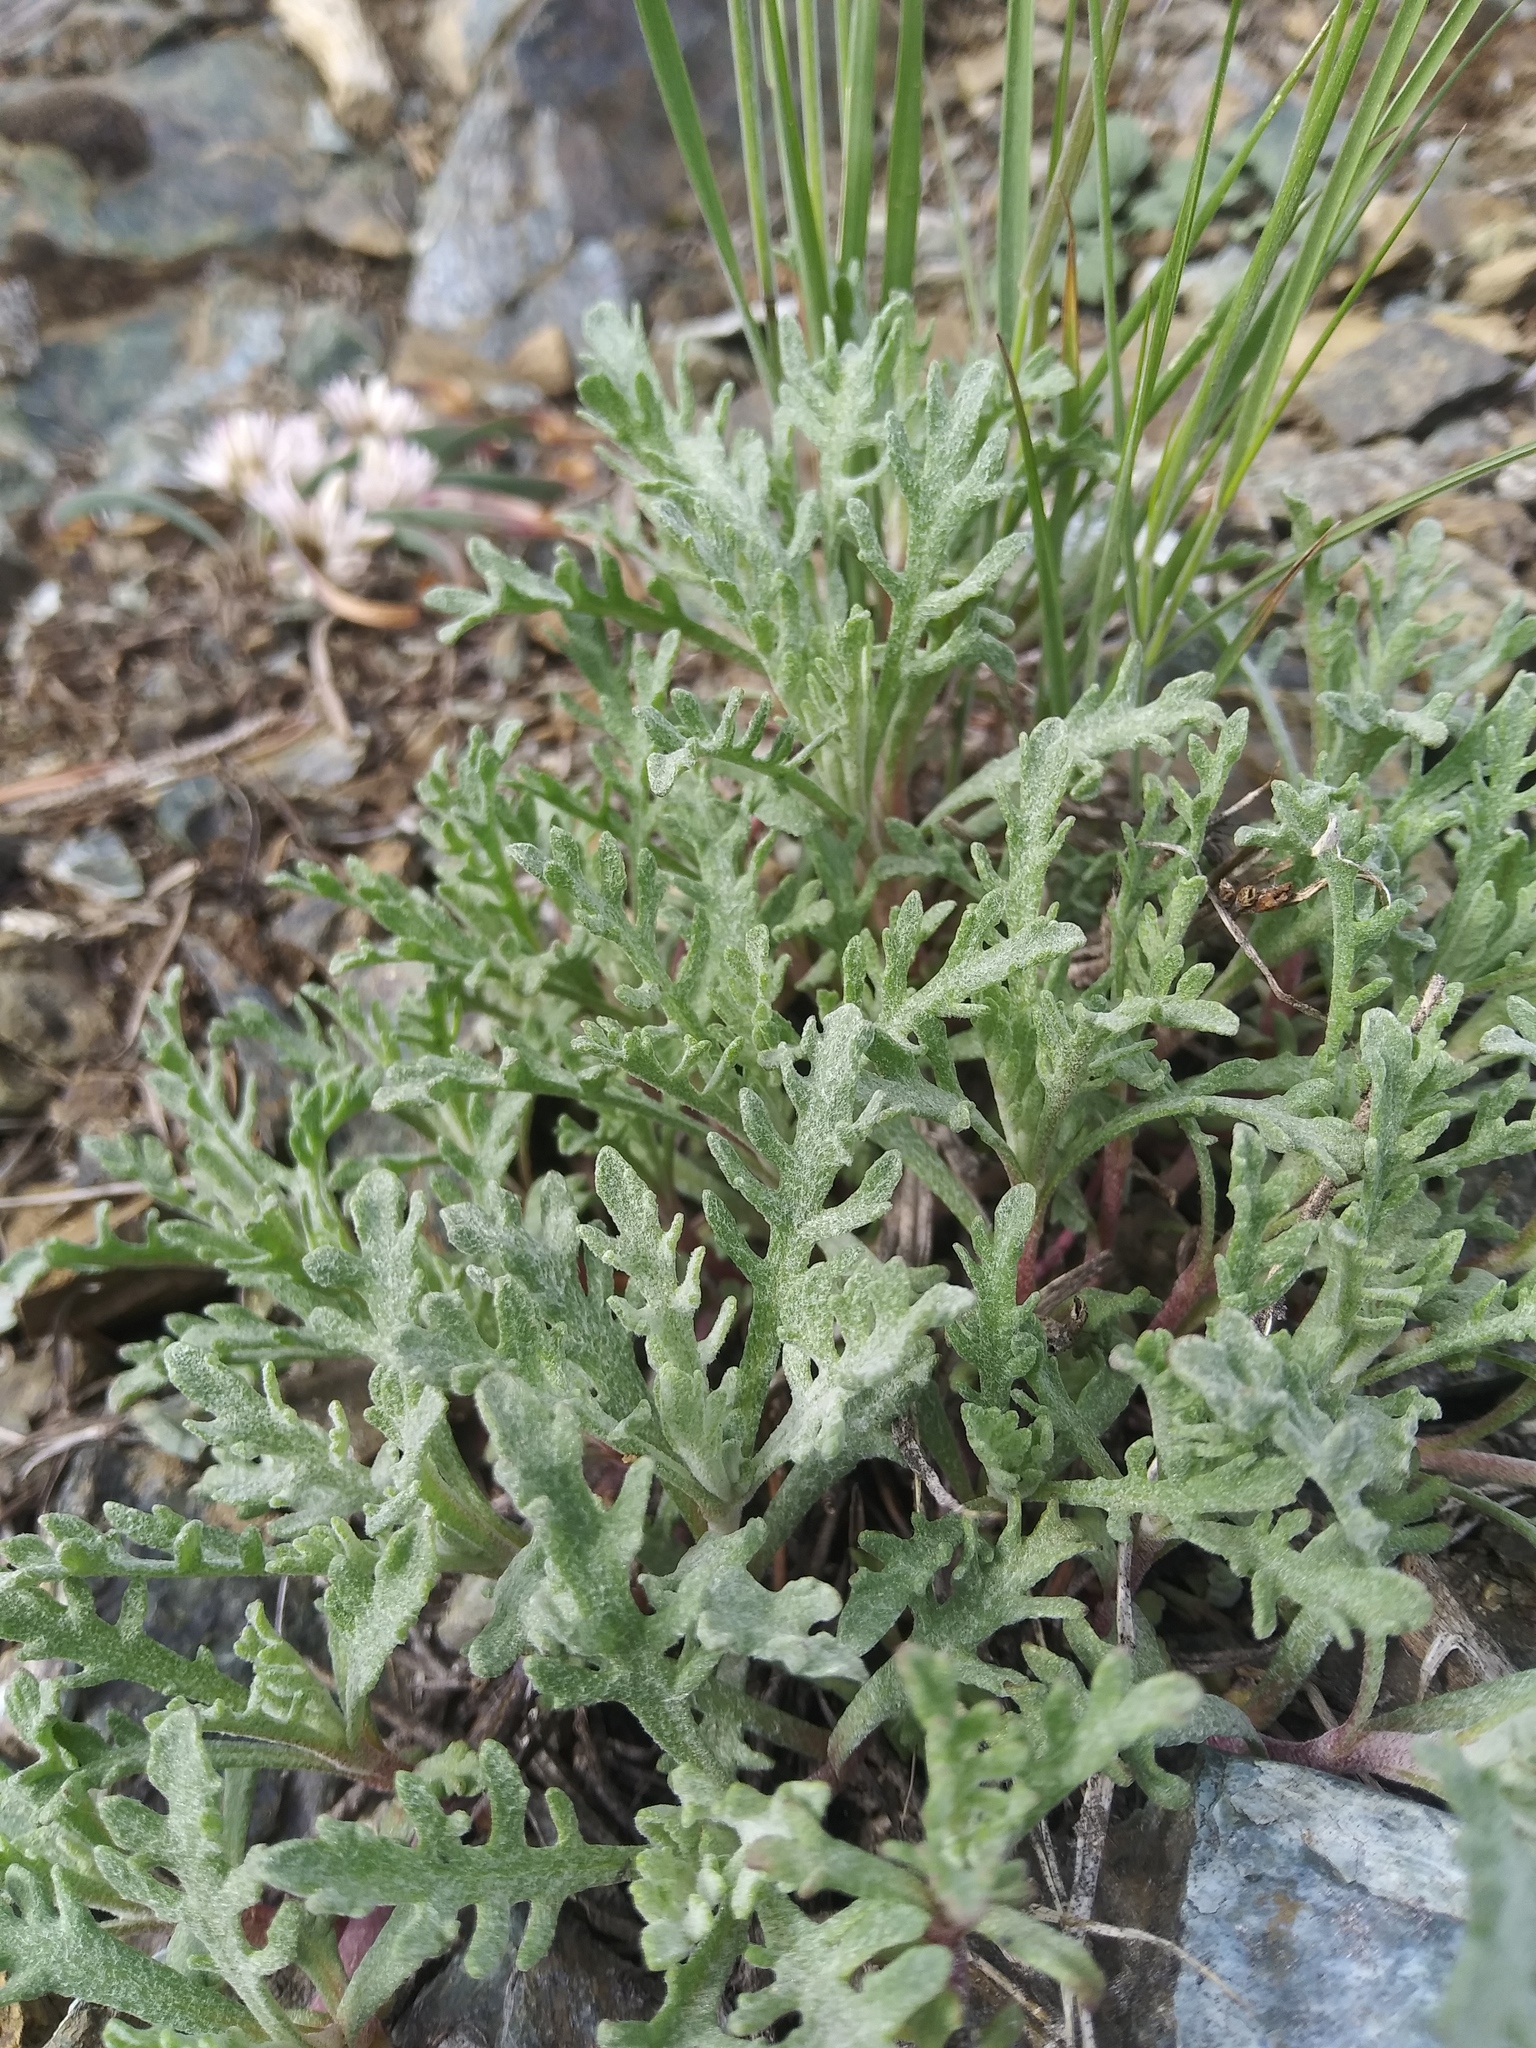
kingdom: Plantae
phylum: Tracheophyta
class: Magnoliopsida
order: Asterales
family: Asteraceae
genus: Chaenactis
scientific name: Chaenactis thompsonii
